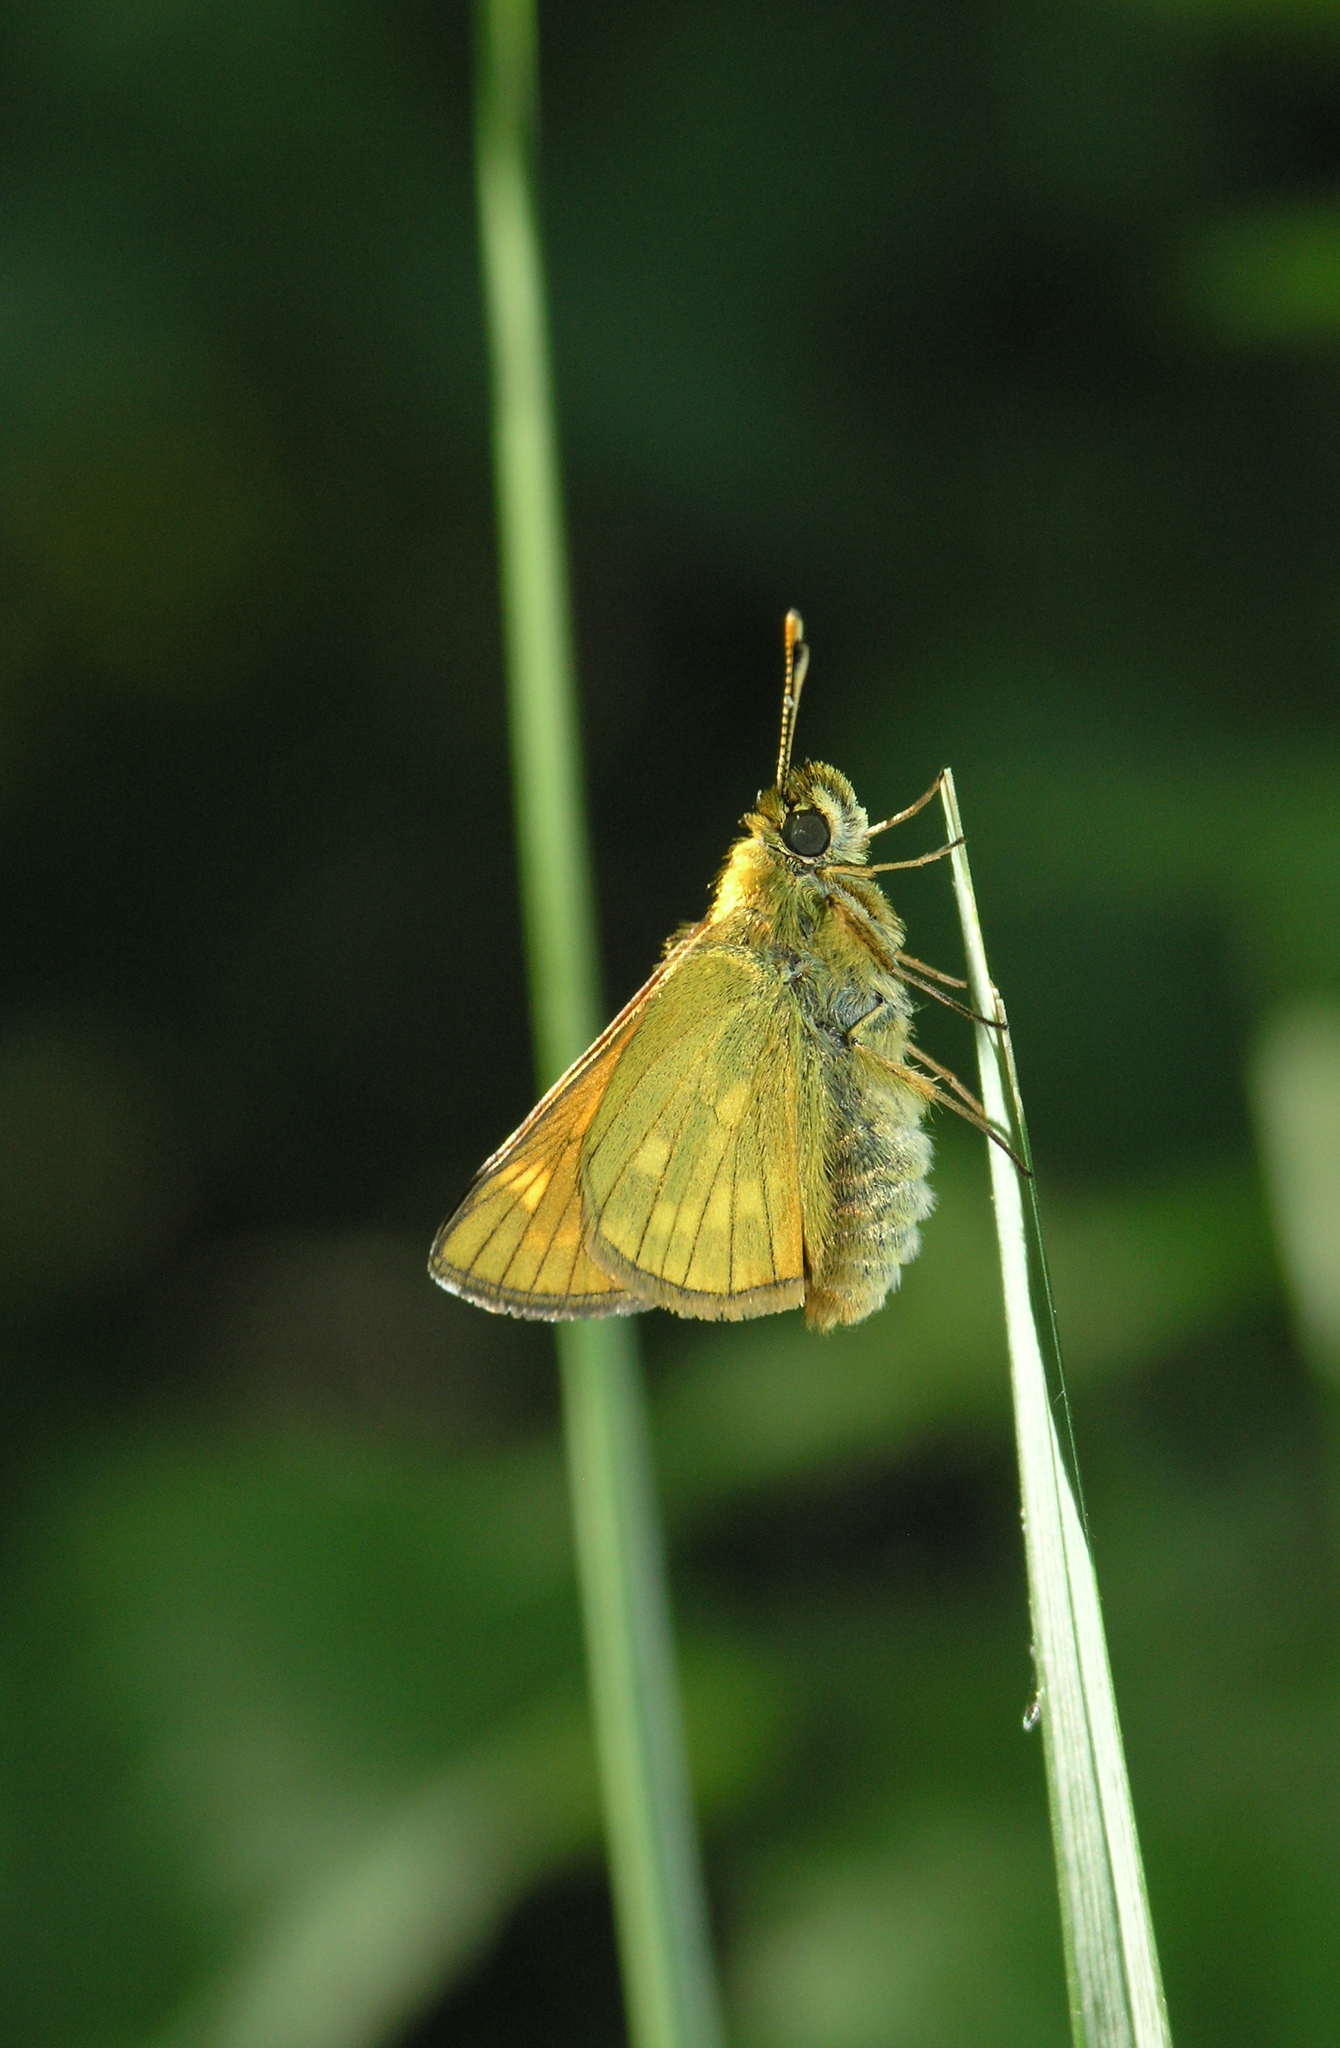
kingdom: Animalia
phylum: Arthropoda
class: Insecta
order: Lepidoptera
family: Hesperiidae
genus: Ochlodes
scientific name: Ochlodes venata
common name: Large skipper
